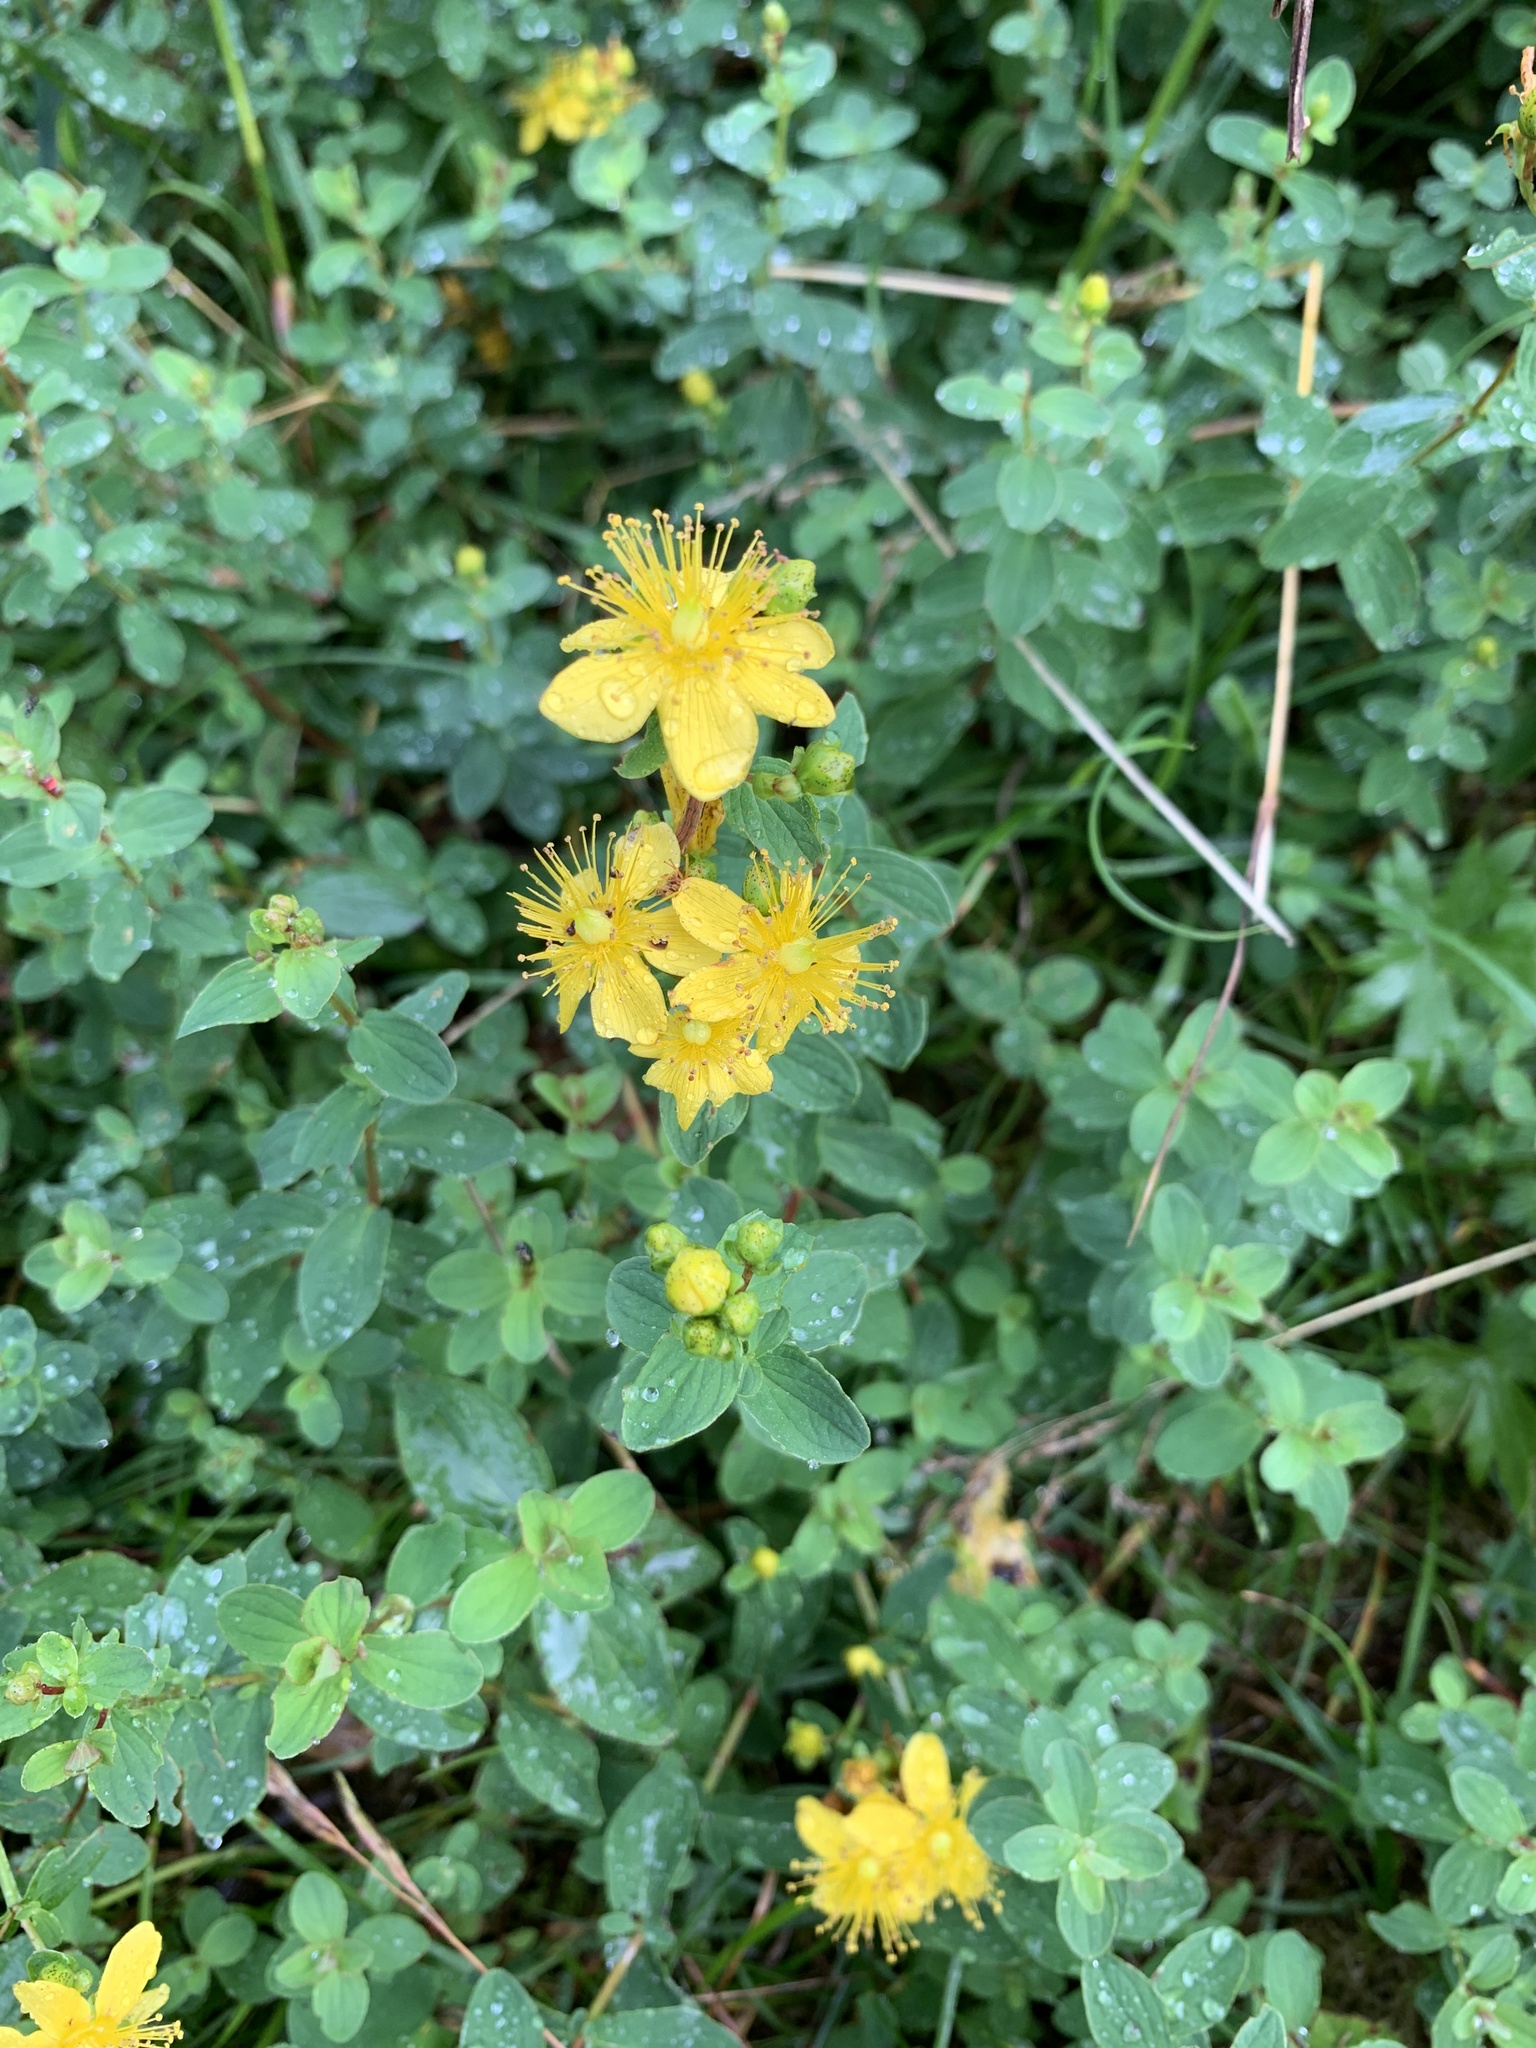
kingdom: Plantae
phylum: Tracheophyta
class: Magnoliopsida
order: Malpighiales
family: Hypericaceae
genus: Hypericum
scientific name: Hypericum maculatum
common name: Imperforate st. john's-wort
